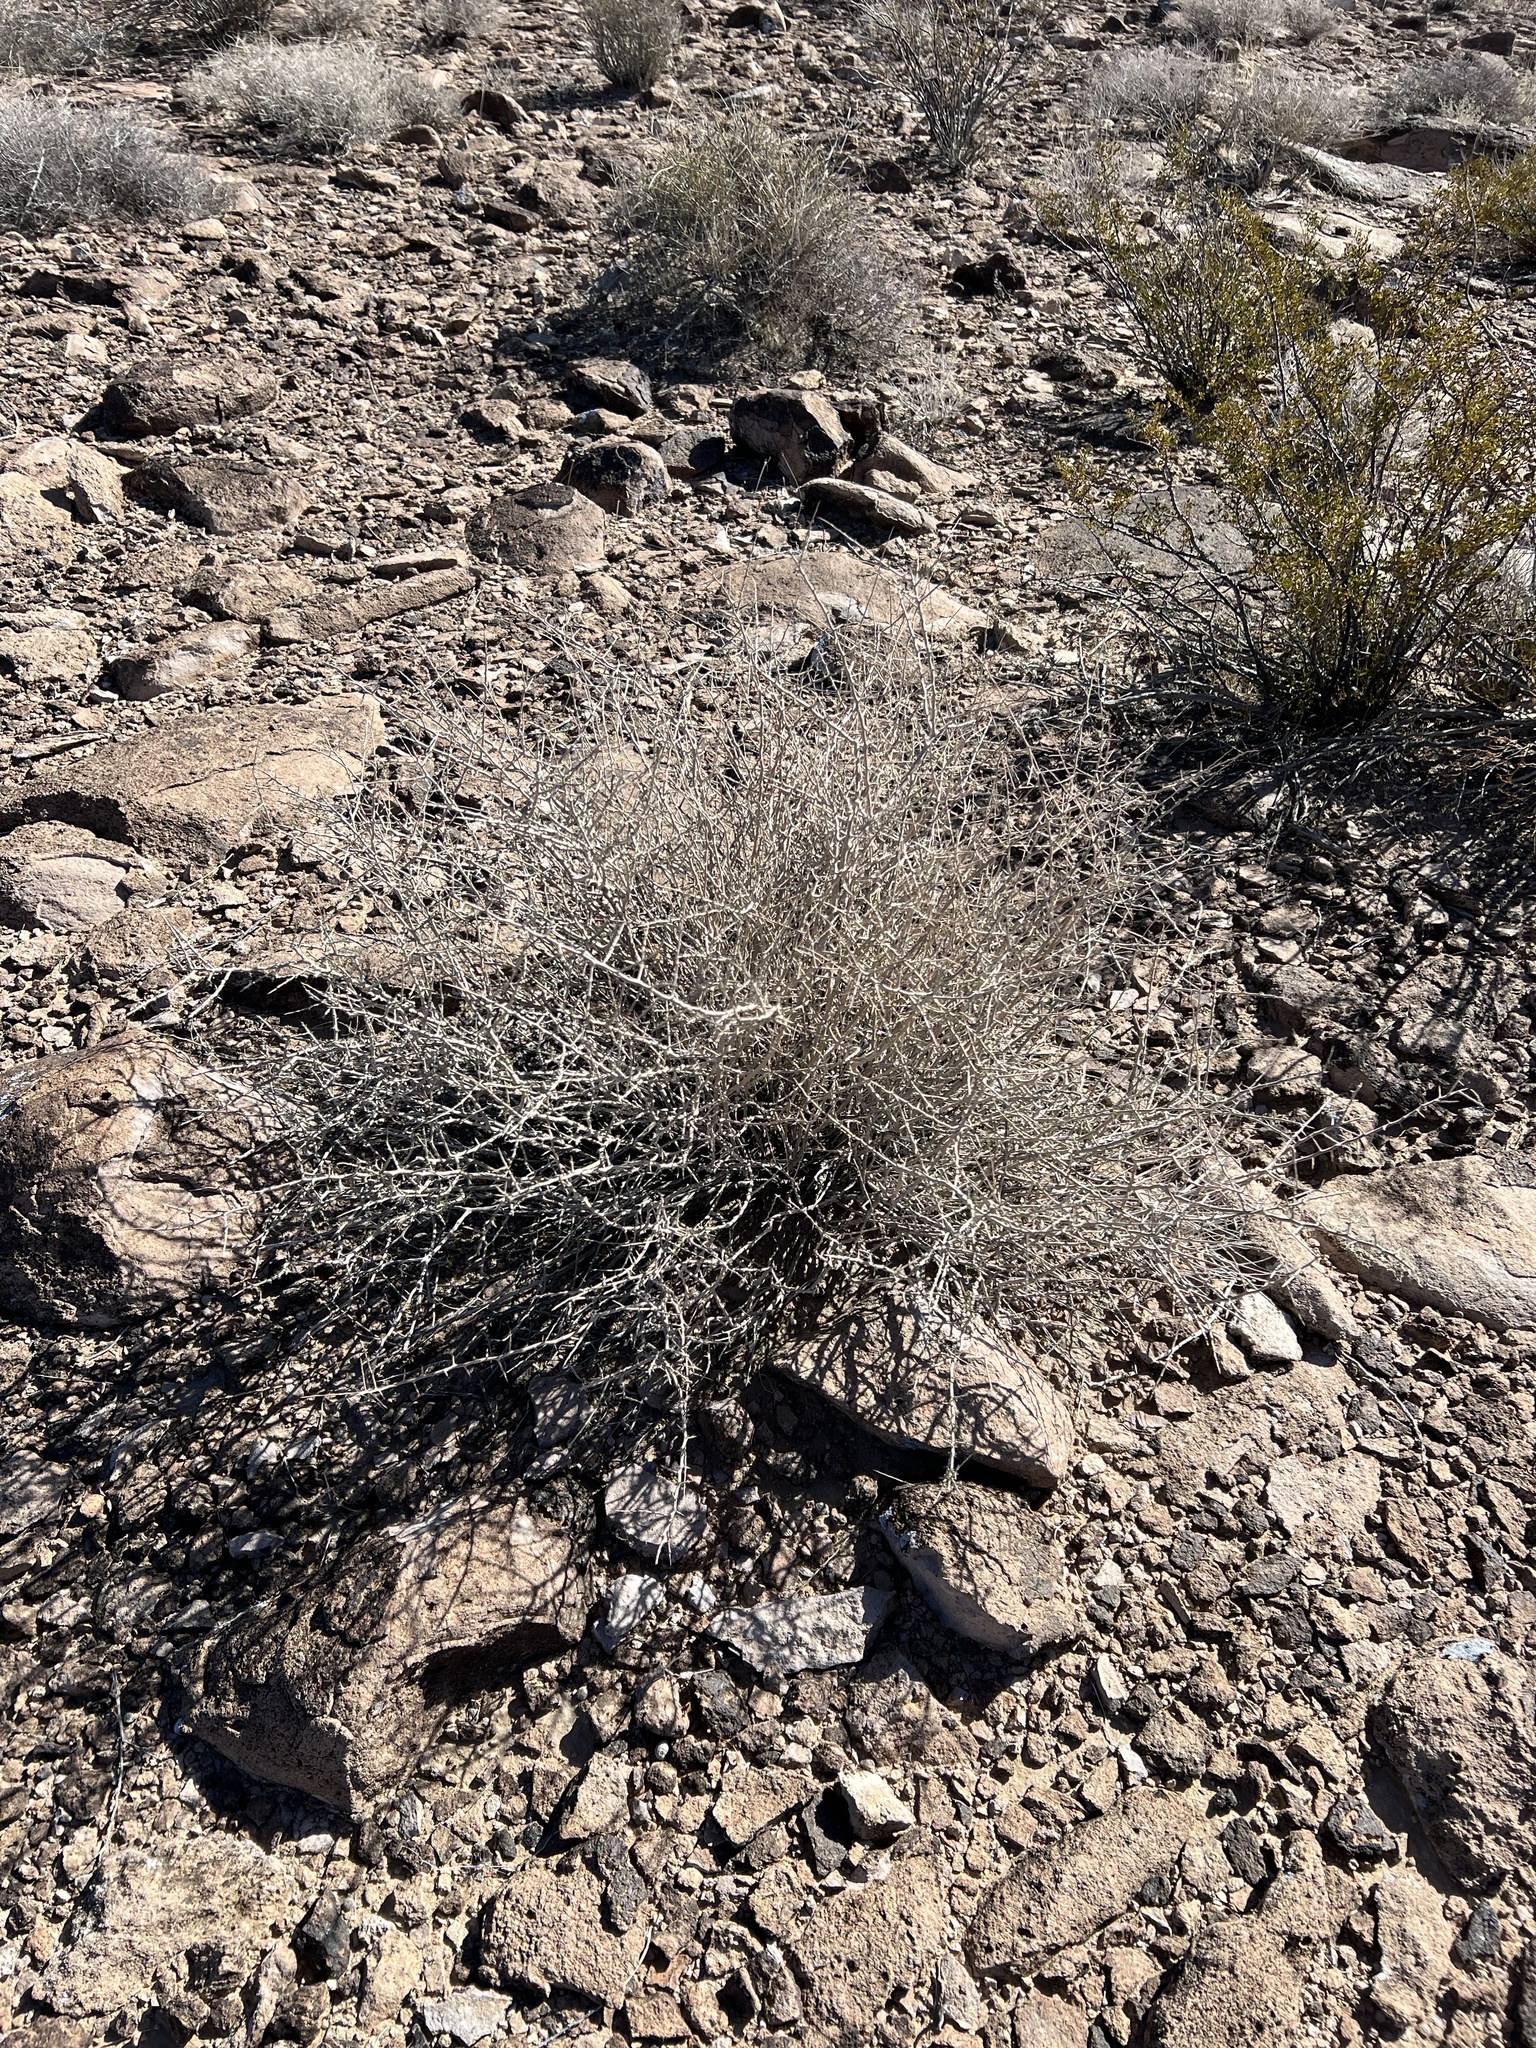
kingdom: Plantae
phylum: Tracheophyta
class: Magnoliopsida
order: Rosales
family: Rosaceae
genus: Prunus
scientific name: Prunus fasciculata
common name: Desert almond
